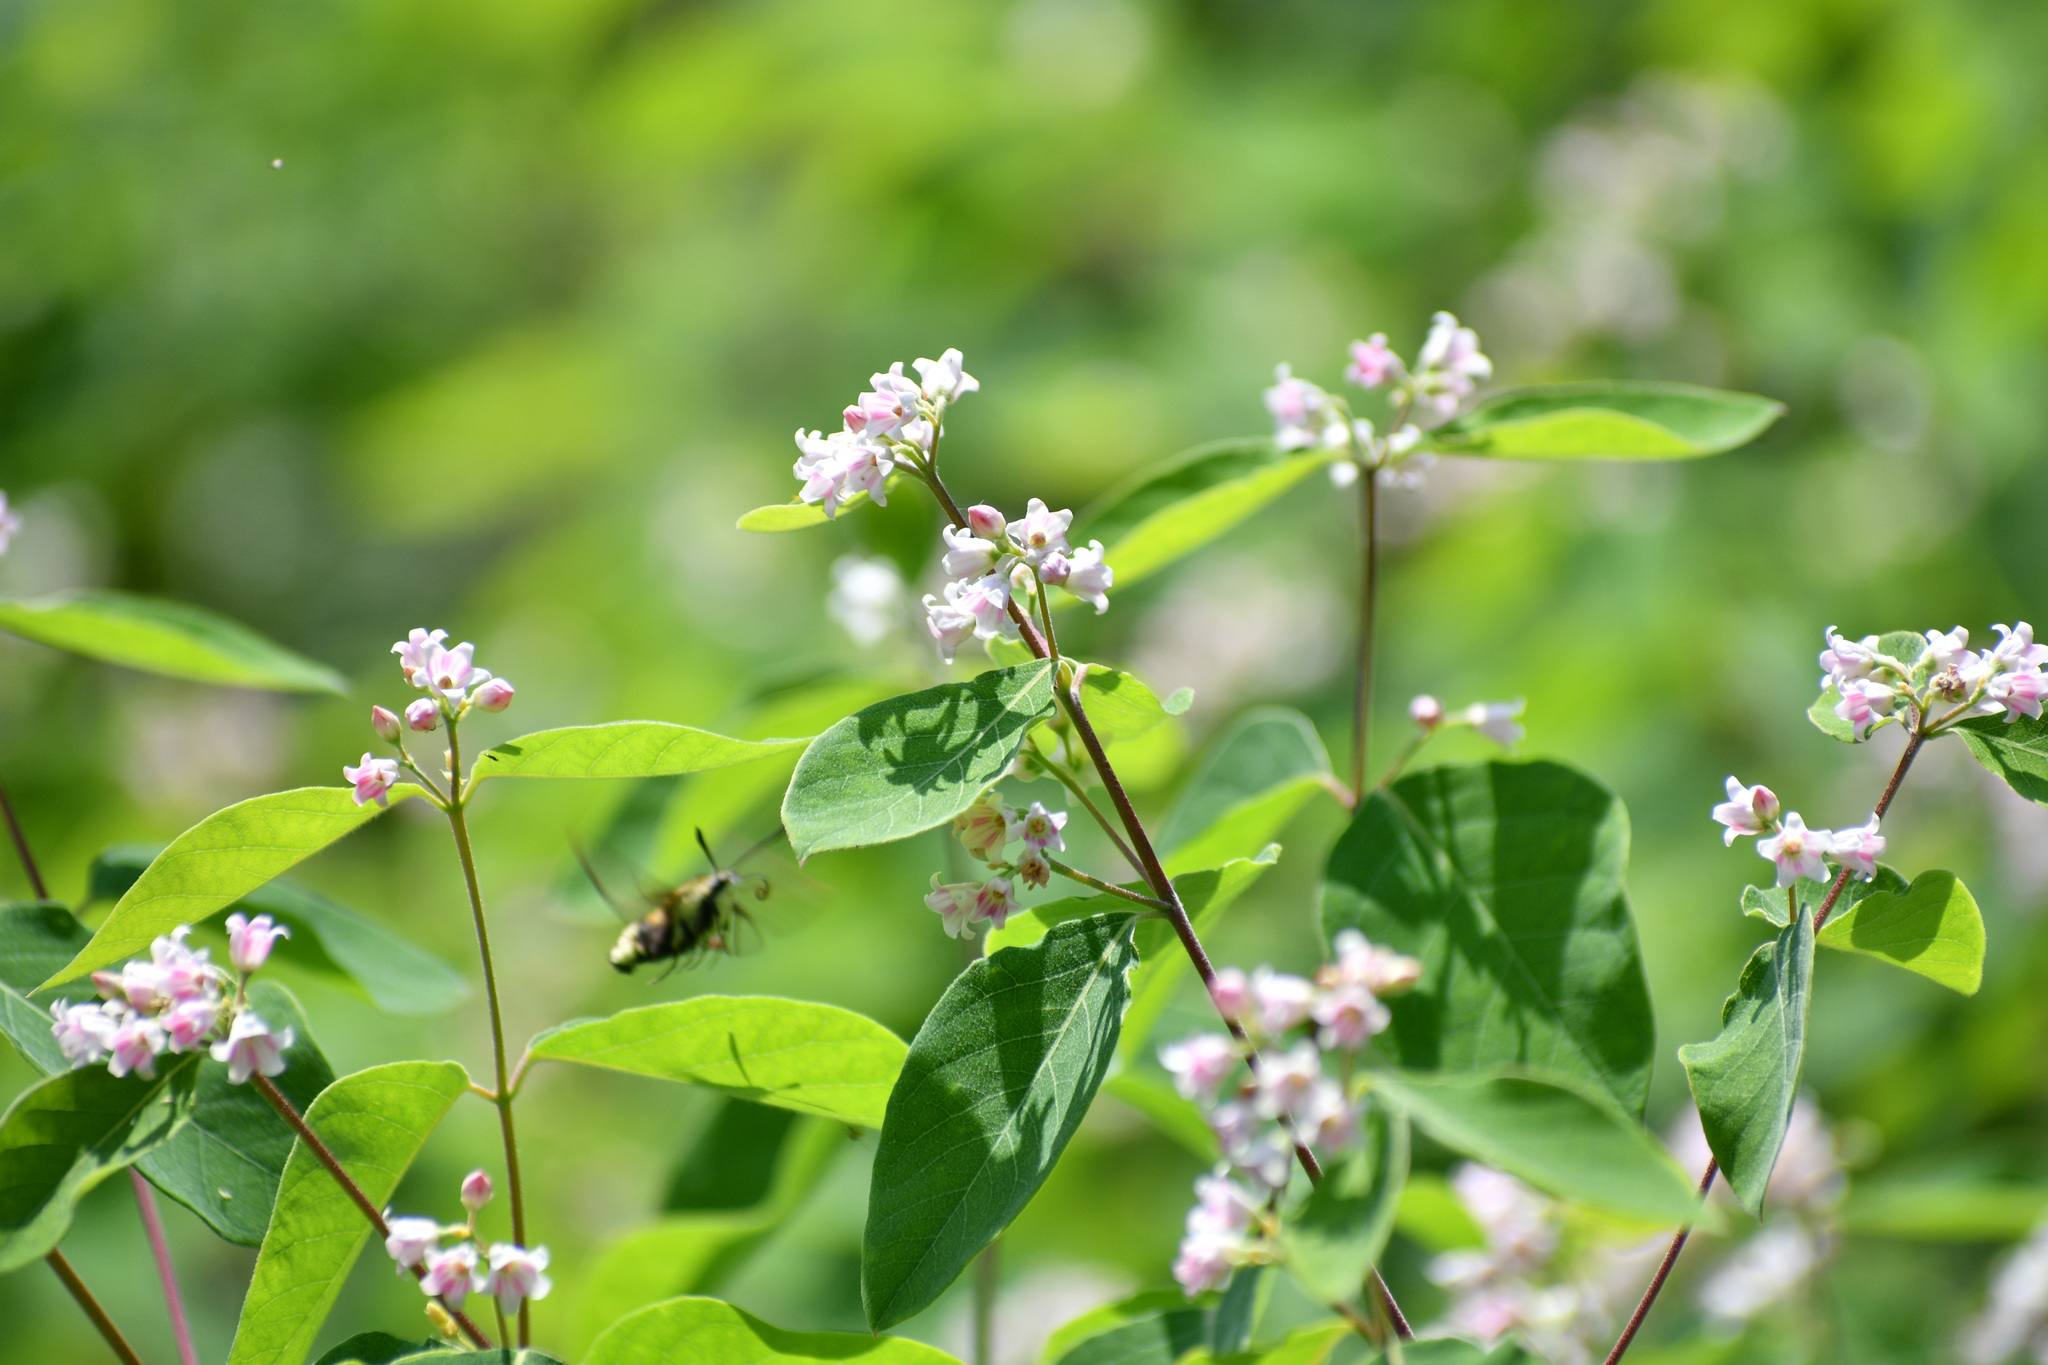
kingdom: Plantae
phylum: Tracheophyta
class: Magnoliopsida
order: Gentianales
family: Apocynaceae
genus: Apocynum
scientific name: Apocynum androsaemifolium
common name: Spreading dogbane
